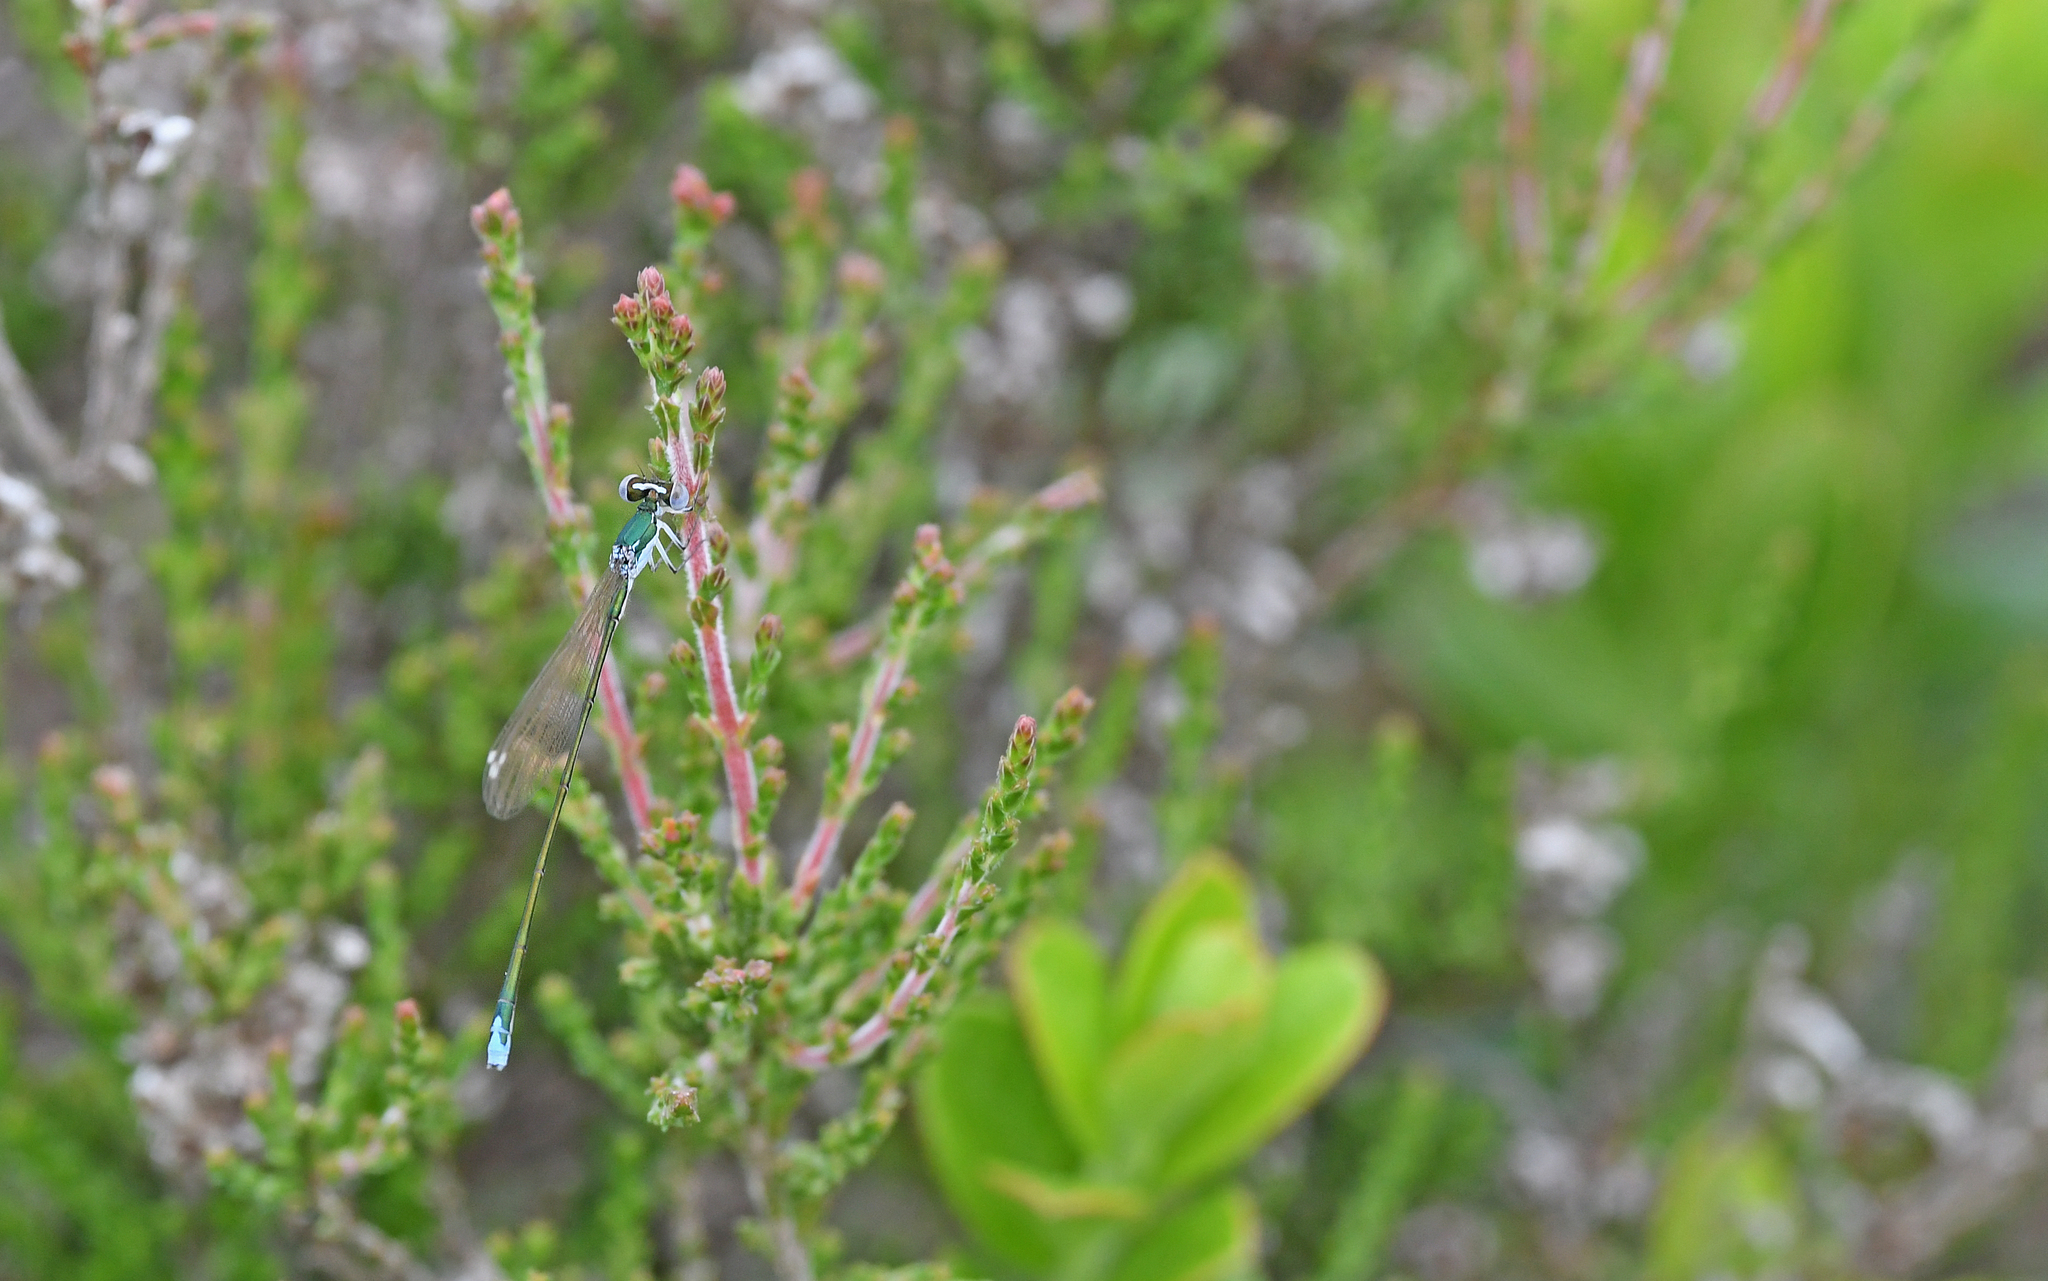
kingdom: Animalia
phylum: Arthropoda
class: Insecta
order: Odonata
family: Coenagrionidae
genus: Nehalennia
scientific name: Nehalennia speciosa
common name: Sedgling
